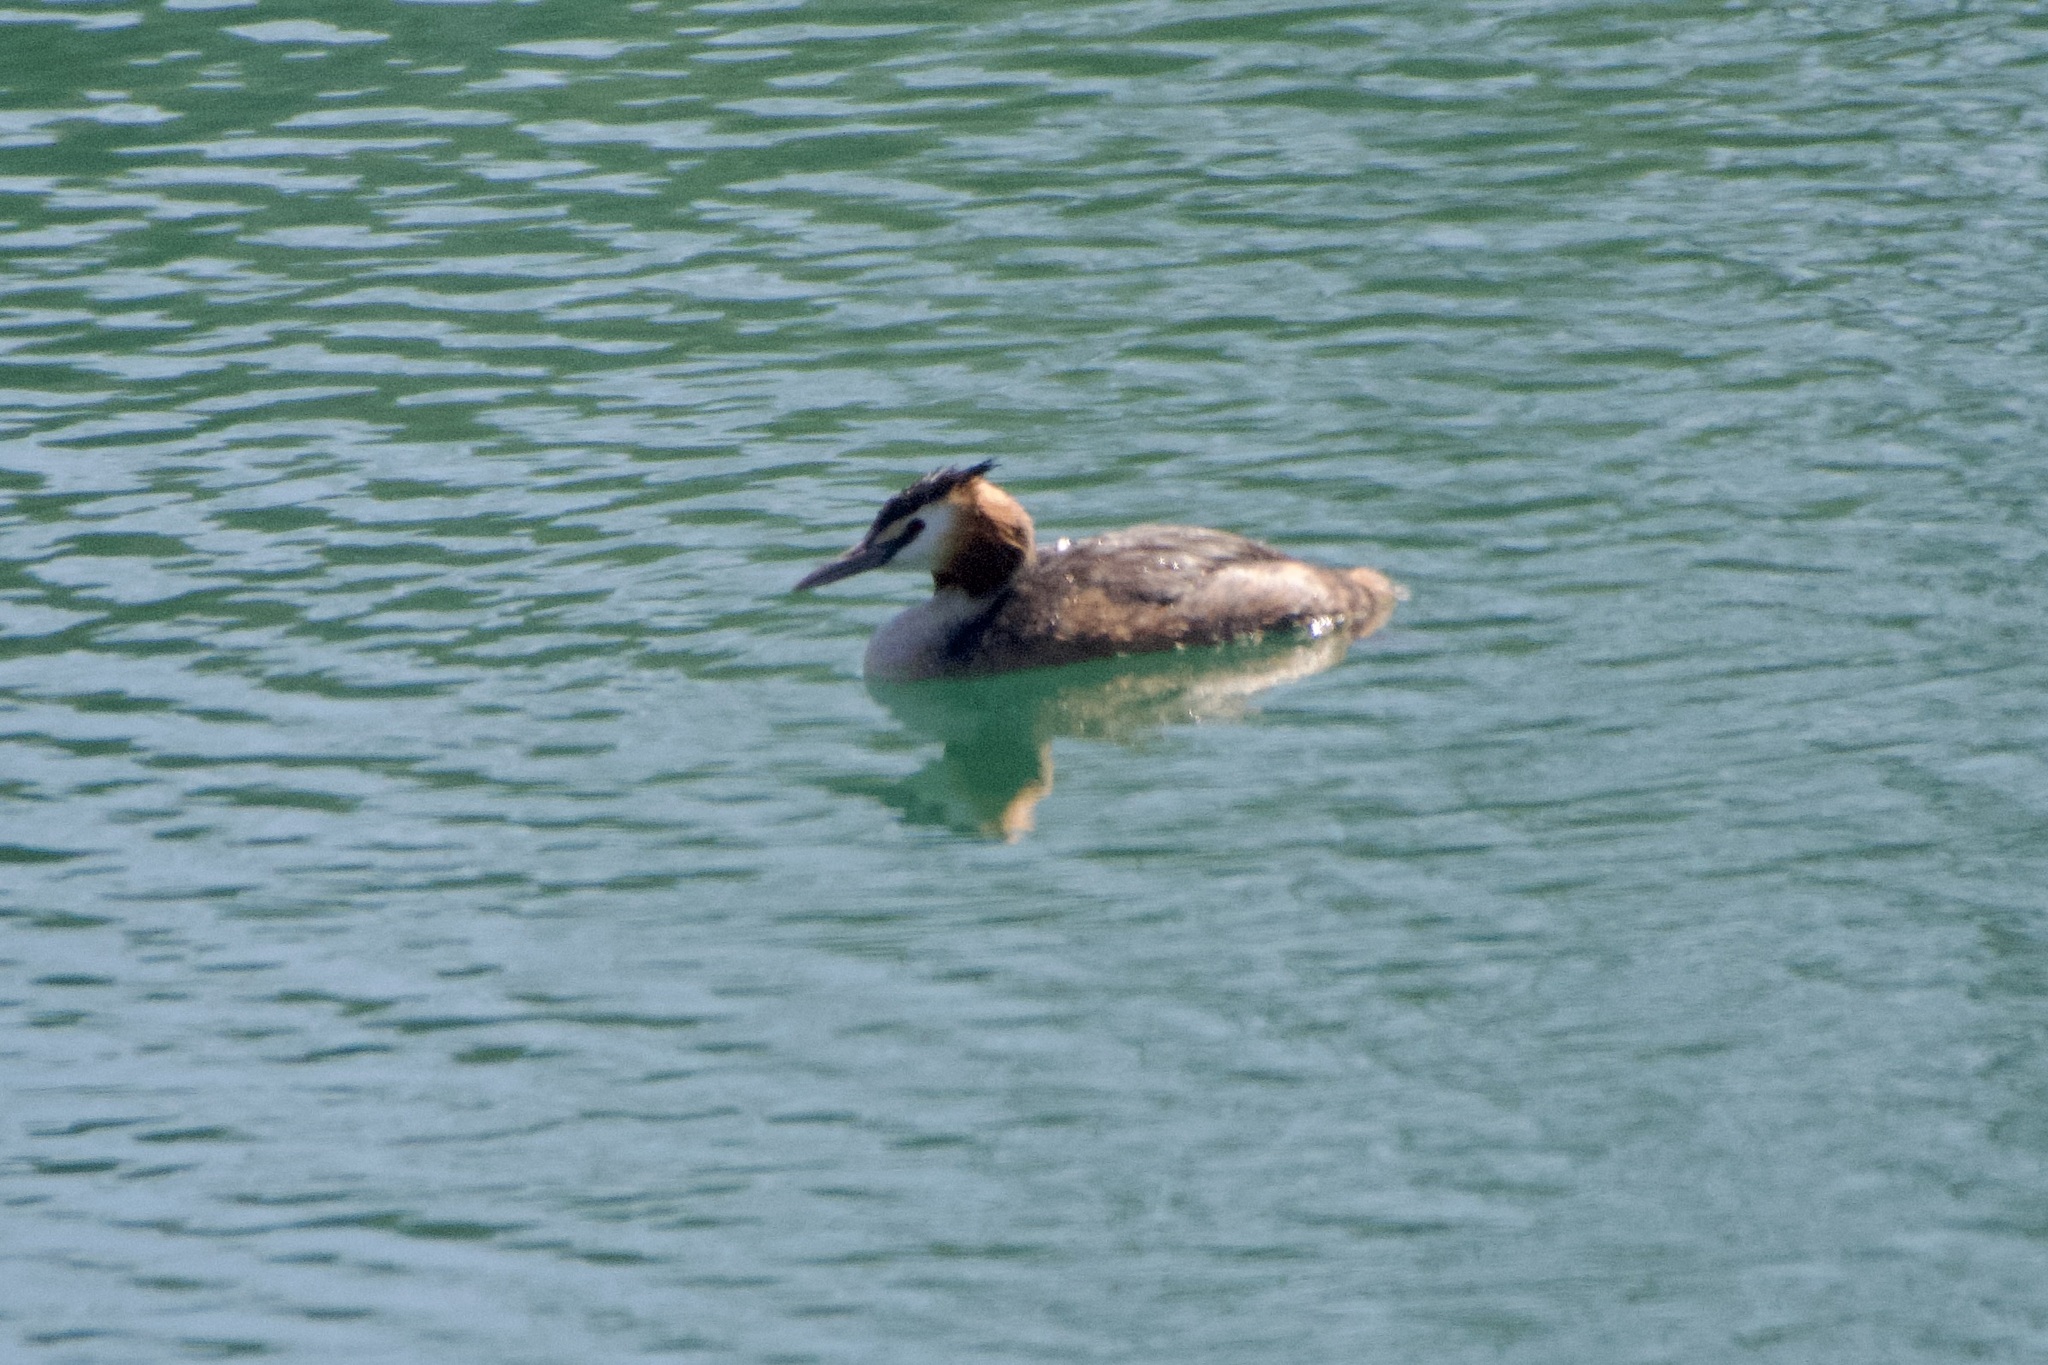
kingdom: Animalia
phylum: Chordata
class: Aves
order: Podicipediformes
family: Podicipedidae
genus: Podiceps
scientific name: Podiceps cristatus
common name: Great crested grebe
